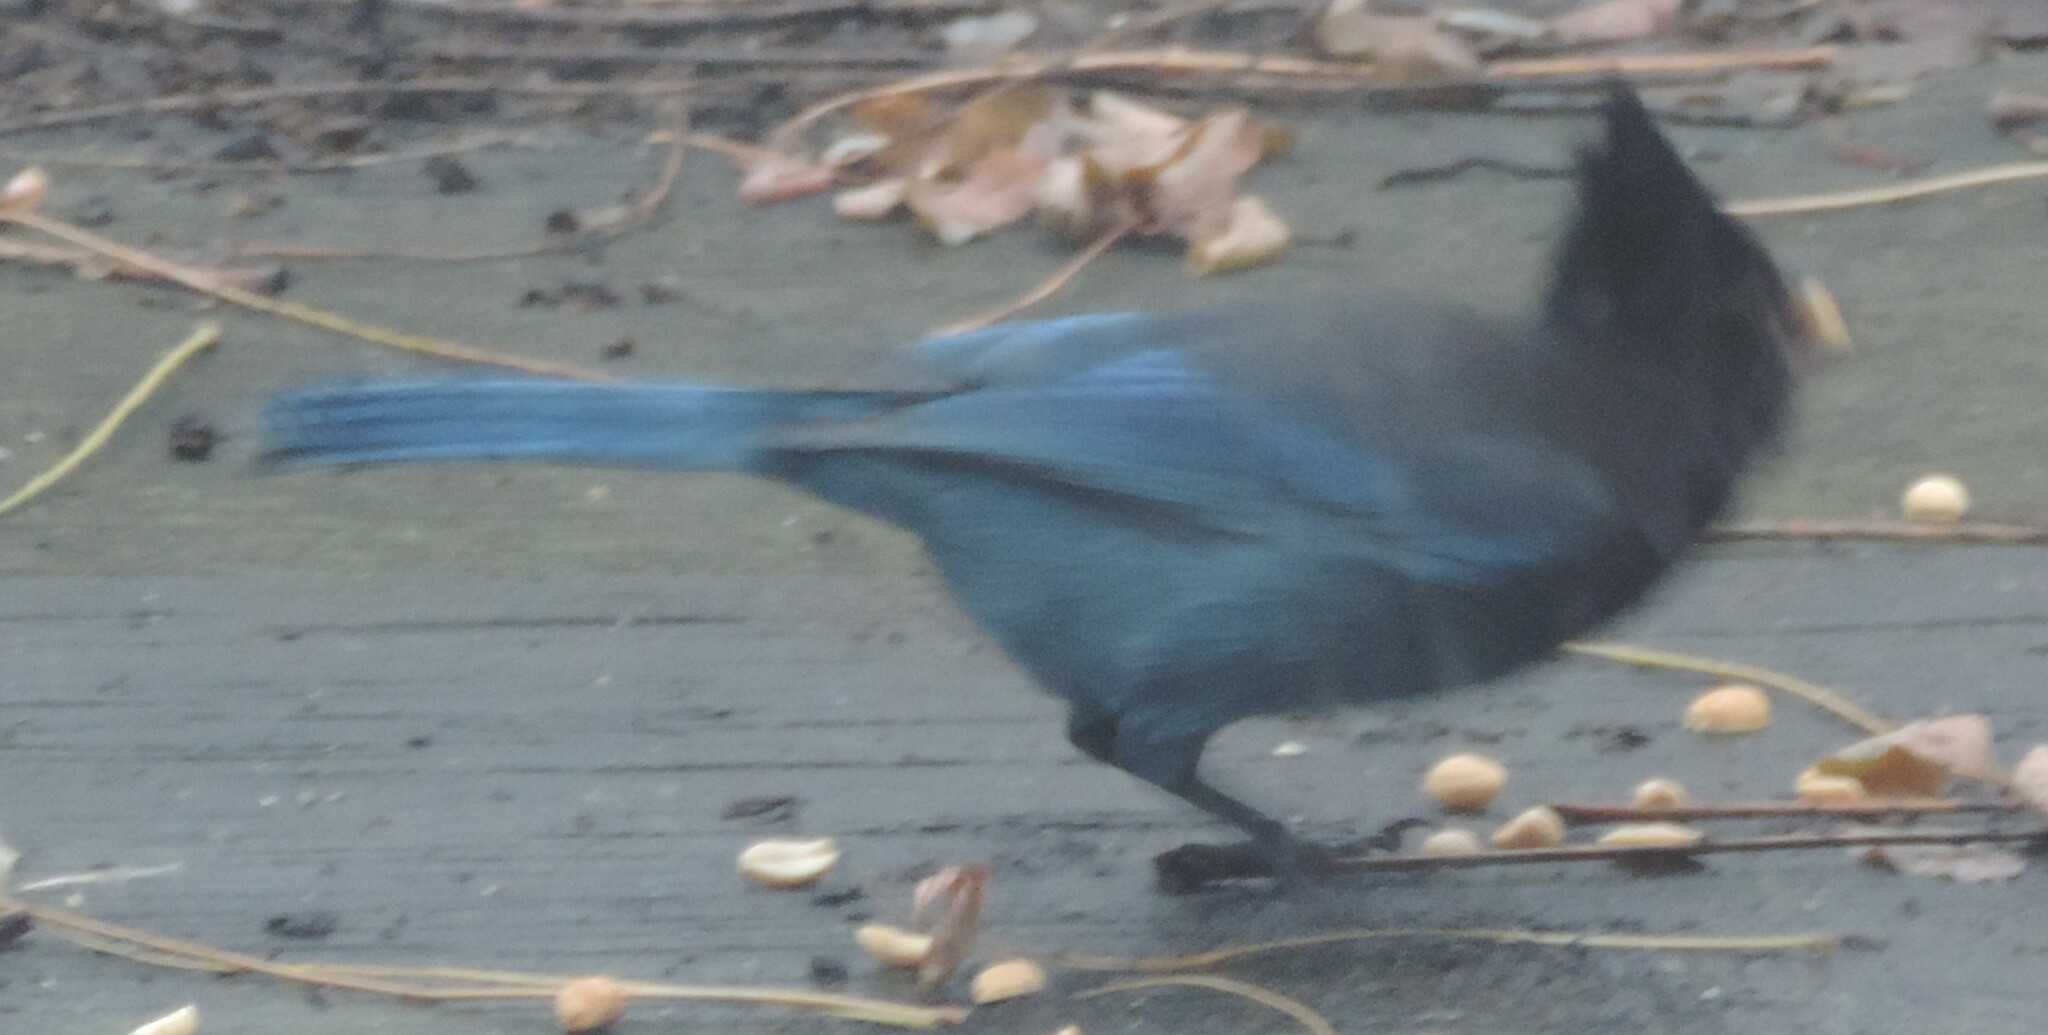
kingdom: Animalia
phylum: Chordata
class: Aves
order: Passeriformes
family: Corvidae
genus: Cyanocitta
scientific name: Cyanocitta stelleri
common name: Steller's jay
